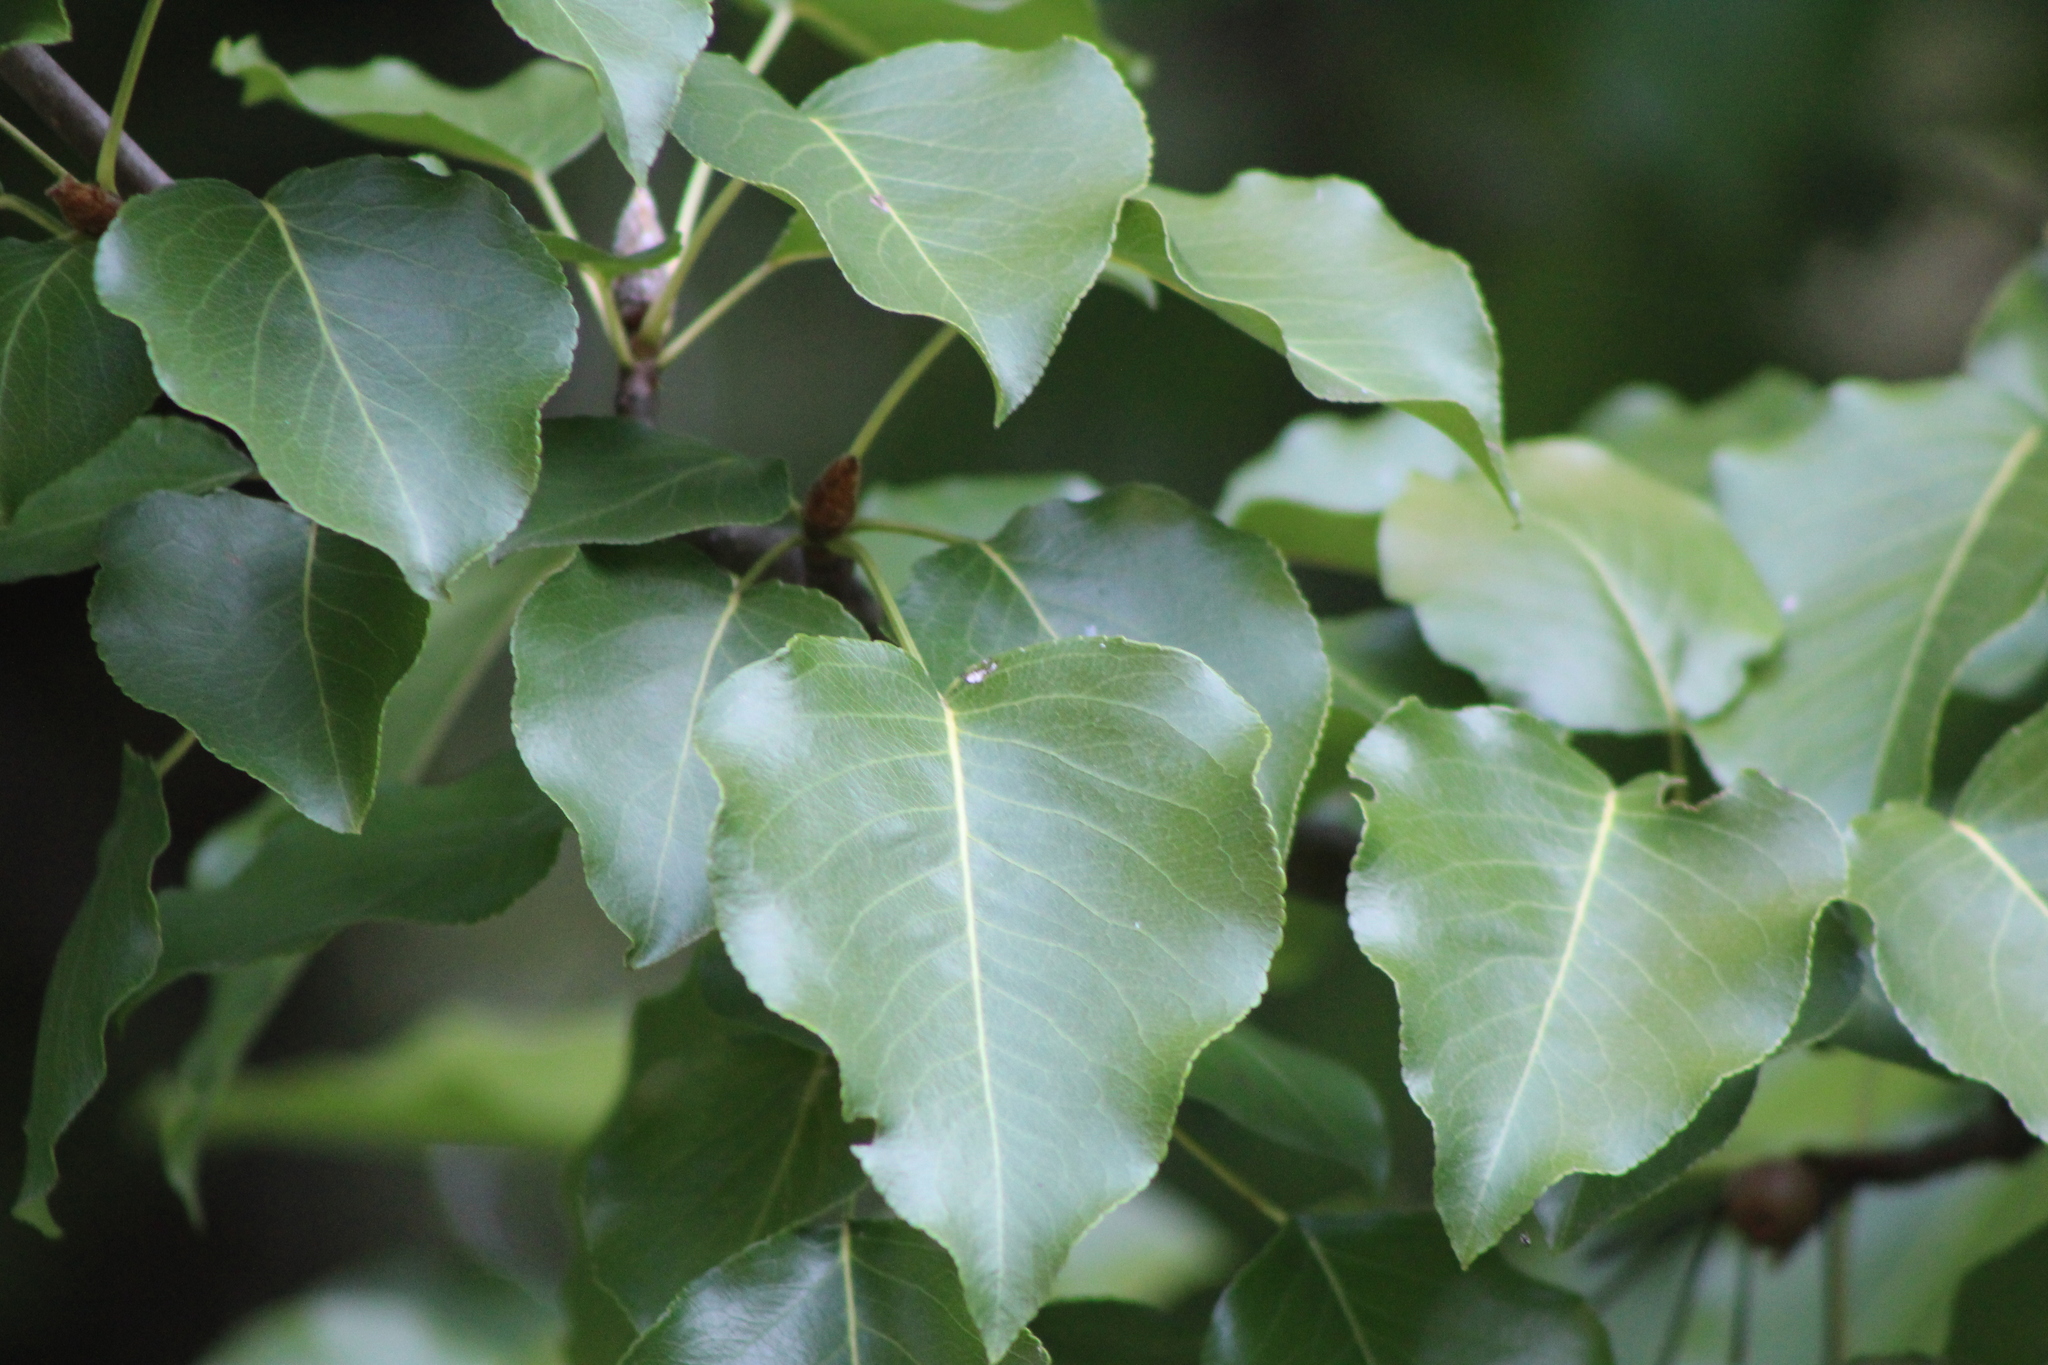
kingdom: Plantae
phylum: Tracheophyta
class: Magnoliopsida
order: Rosales
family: Rosaceae
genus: Pyrus
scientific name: Pyrus calleryana
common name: Callery pear
